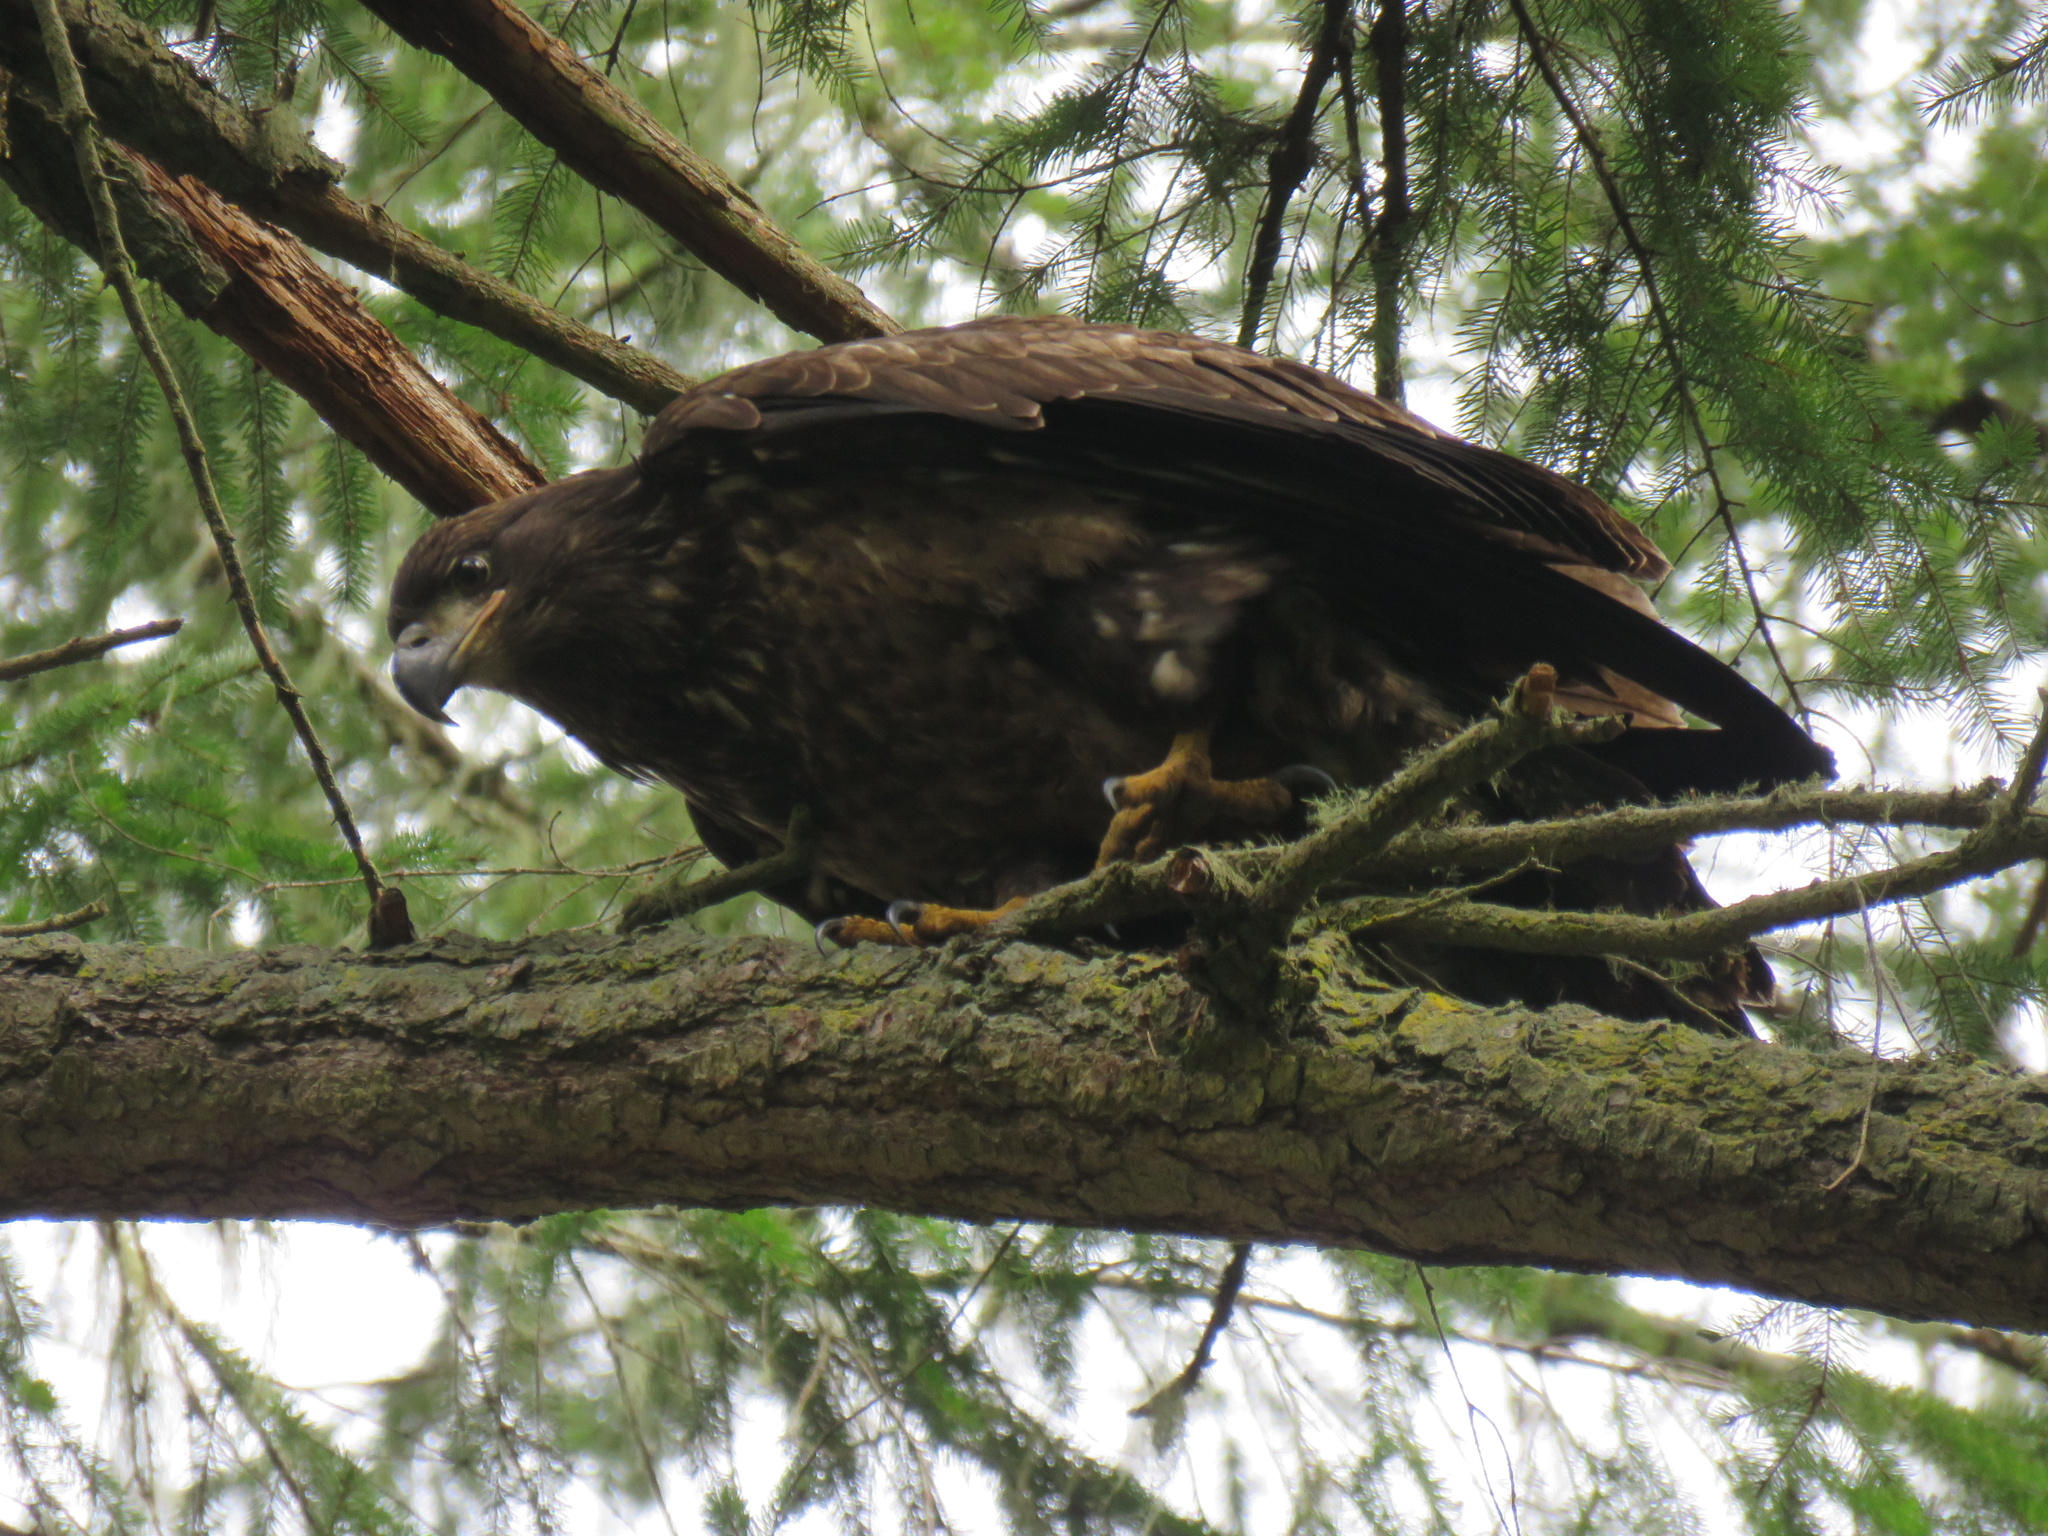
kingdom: Animalia
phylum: Chordata
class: Aves
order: Accipitriformes
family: Accipitridae
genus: Haliaeetus
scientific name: Haliaeetus leucocephalus
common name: Bald eagle
